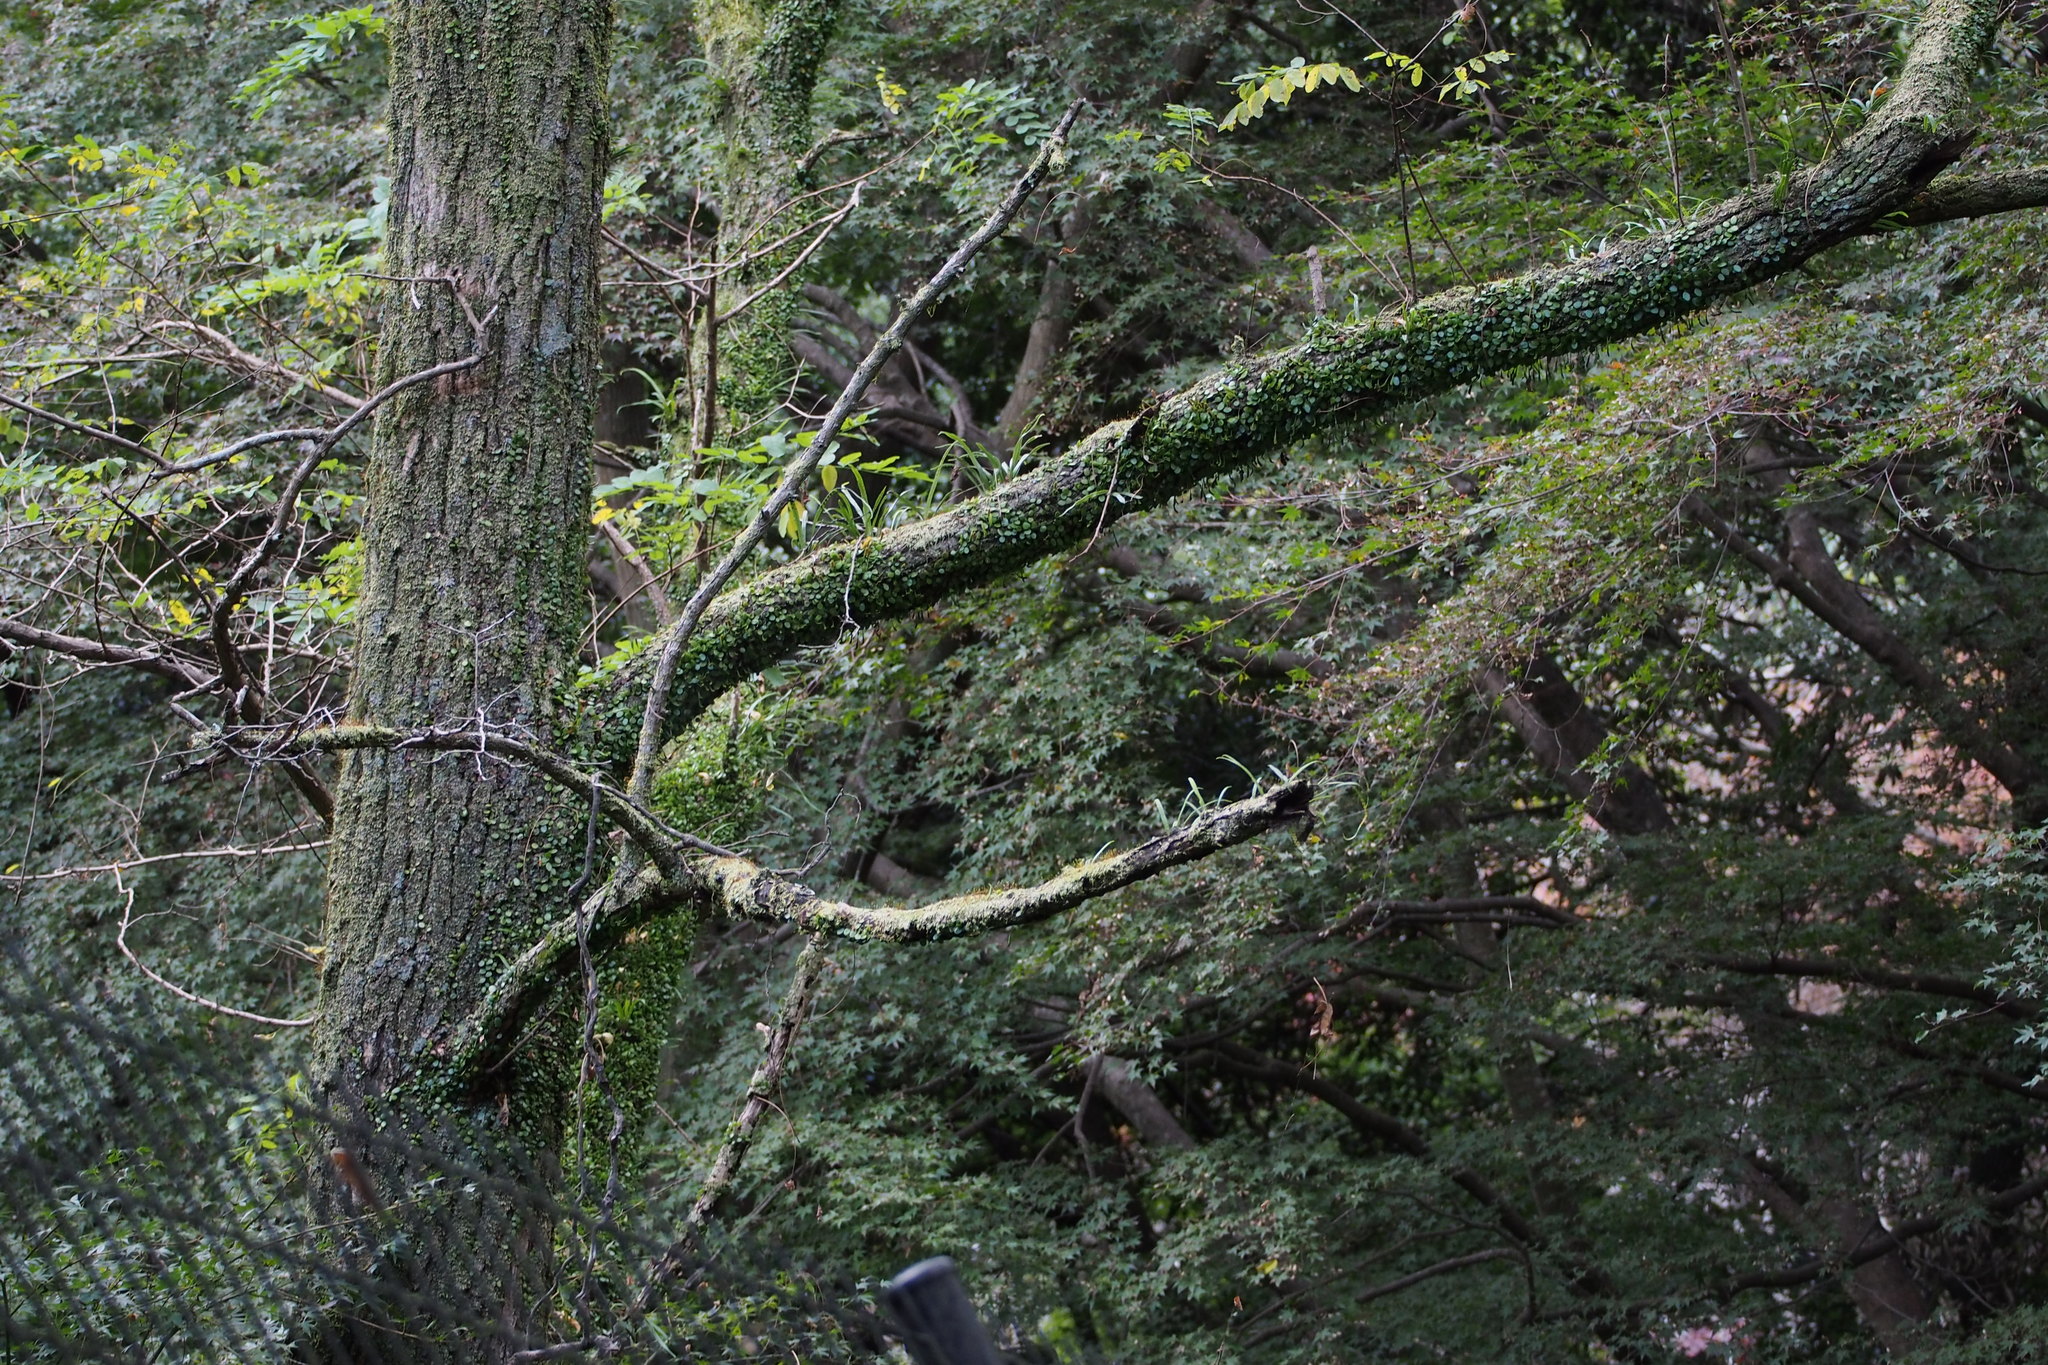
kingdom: Plantae
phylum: Tracheophyta
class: Polypodiopsida
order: Polypodiales
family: Polypodiaceae
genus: Lepisorus
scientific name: Lepisorus microphyllus
